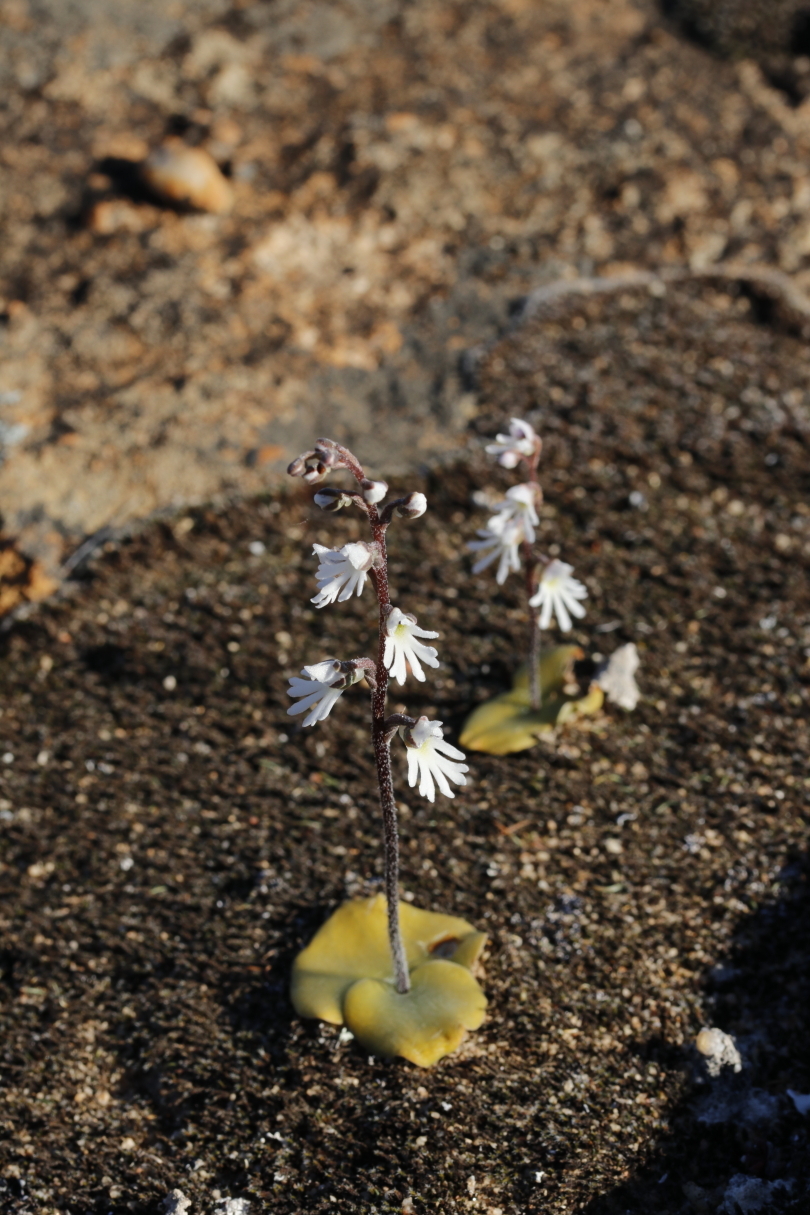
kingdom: Plantae
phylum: Tracheophyta
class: Liliopsida
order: Asparagales
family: Orchidaceae
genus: Holothrix
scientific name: Holothrix aspera
